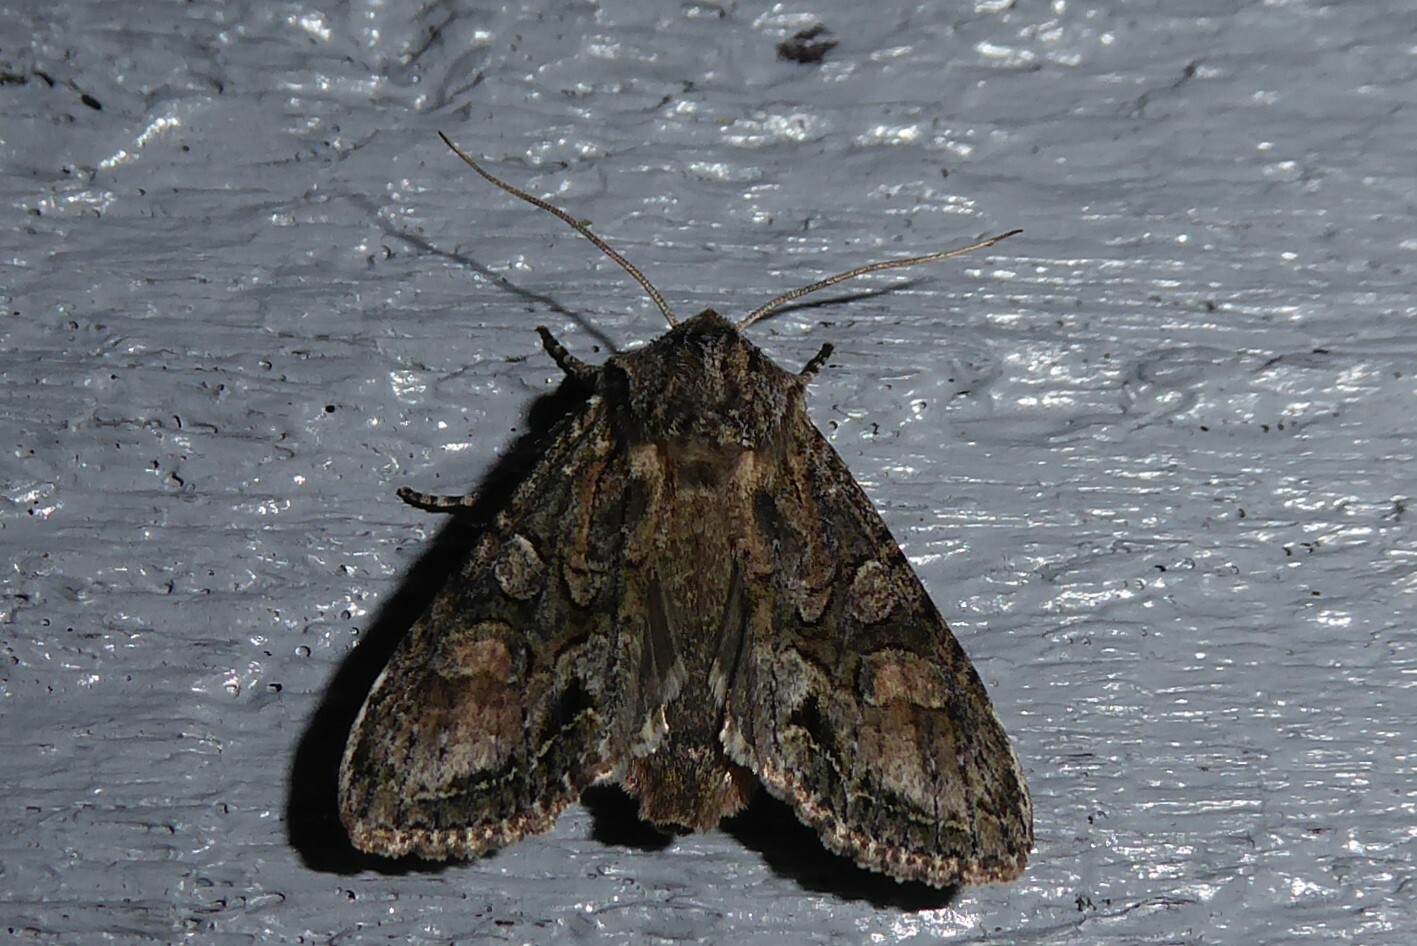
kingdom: Animalia
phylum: Arthropoda
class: Insecta
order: Lepidoptera
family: Noctuidae
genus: Ichneutica
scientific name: Ichneutica mutans
